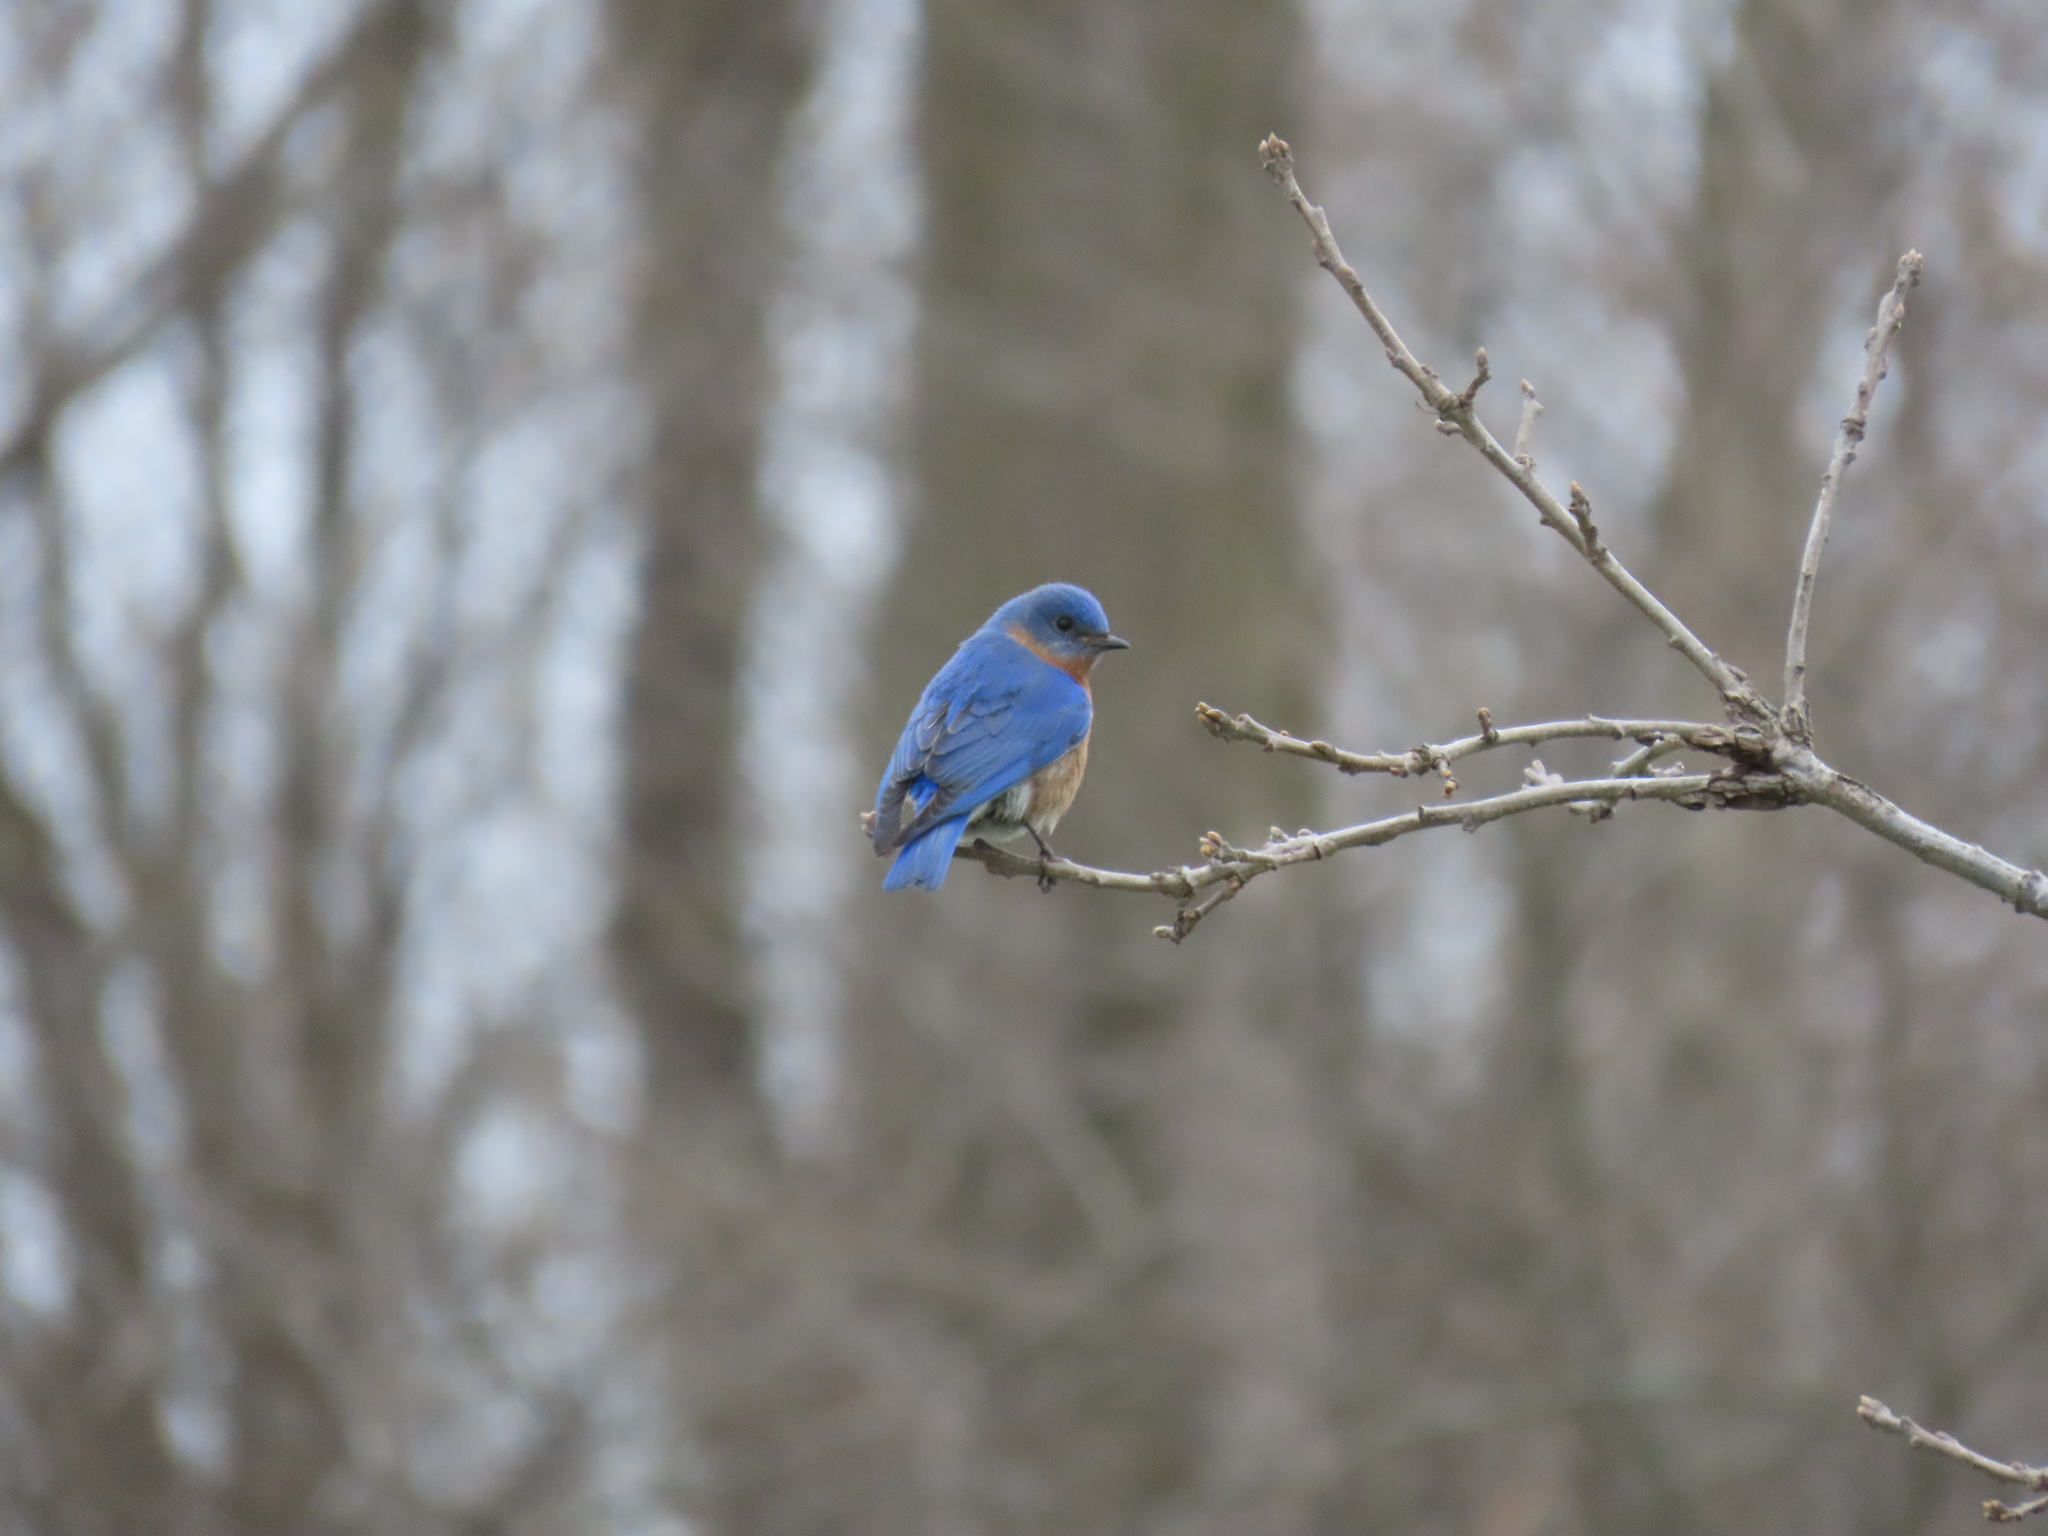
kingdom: Animalia
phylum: Chordata
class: Aves
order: Passeriformes
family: Turdidae
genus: Sialia
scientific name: Sialia sialis
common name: Eastern bluebird
